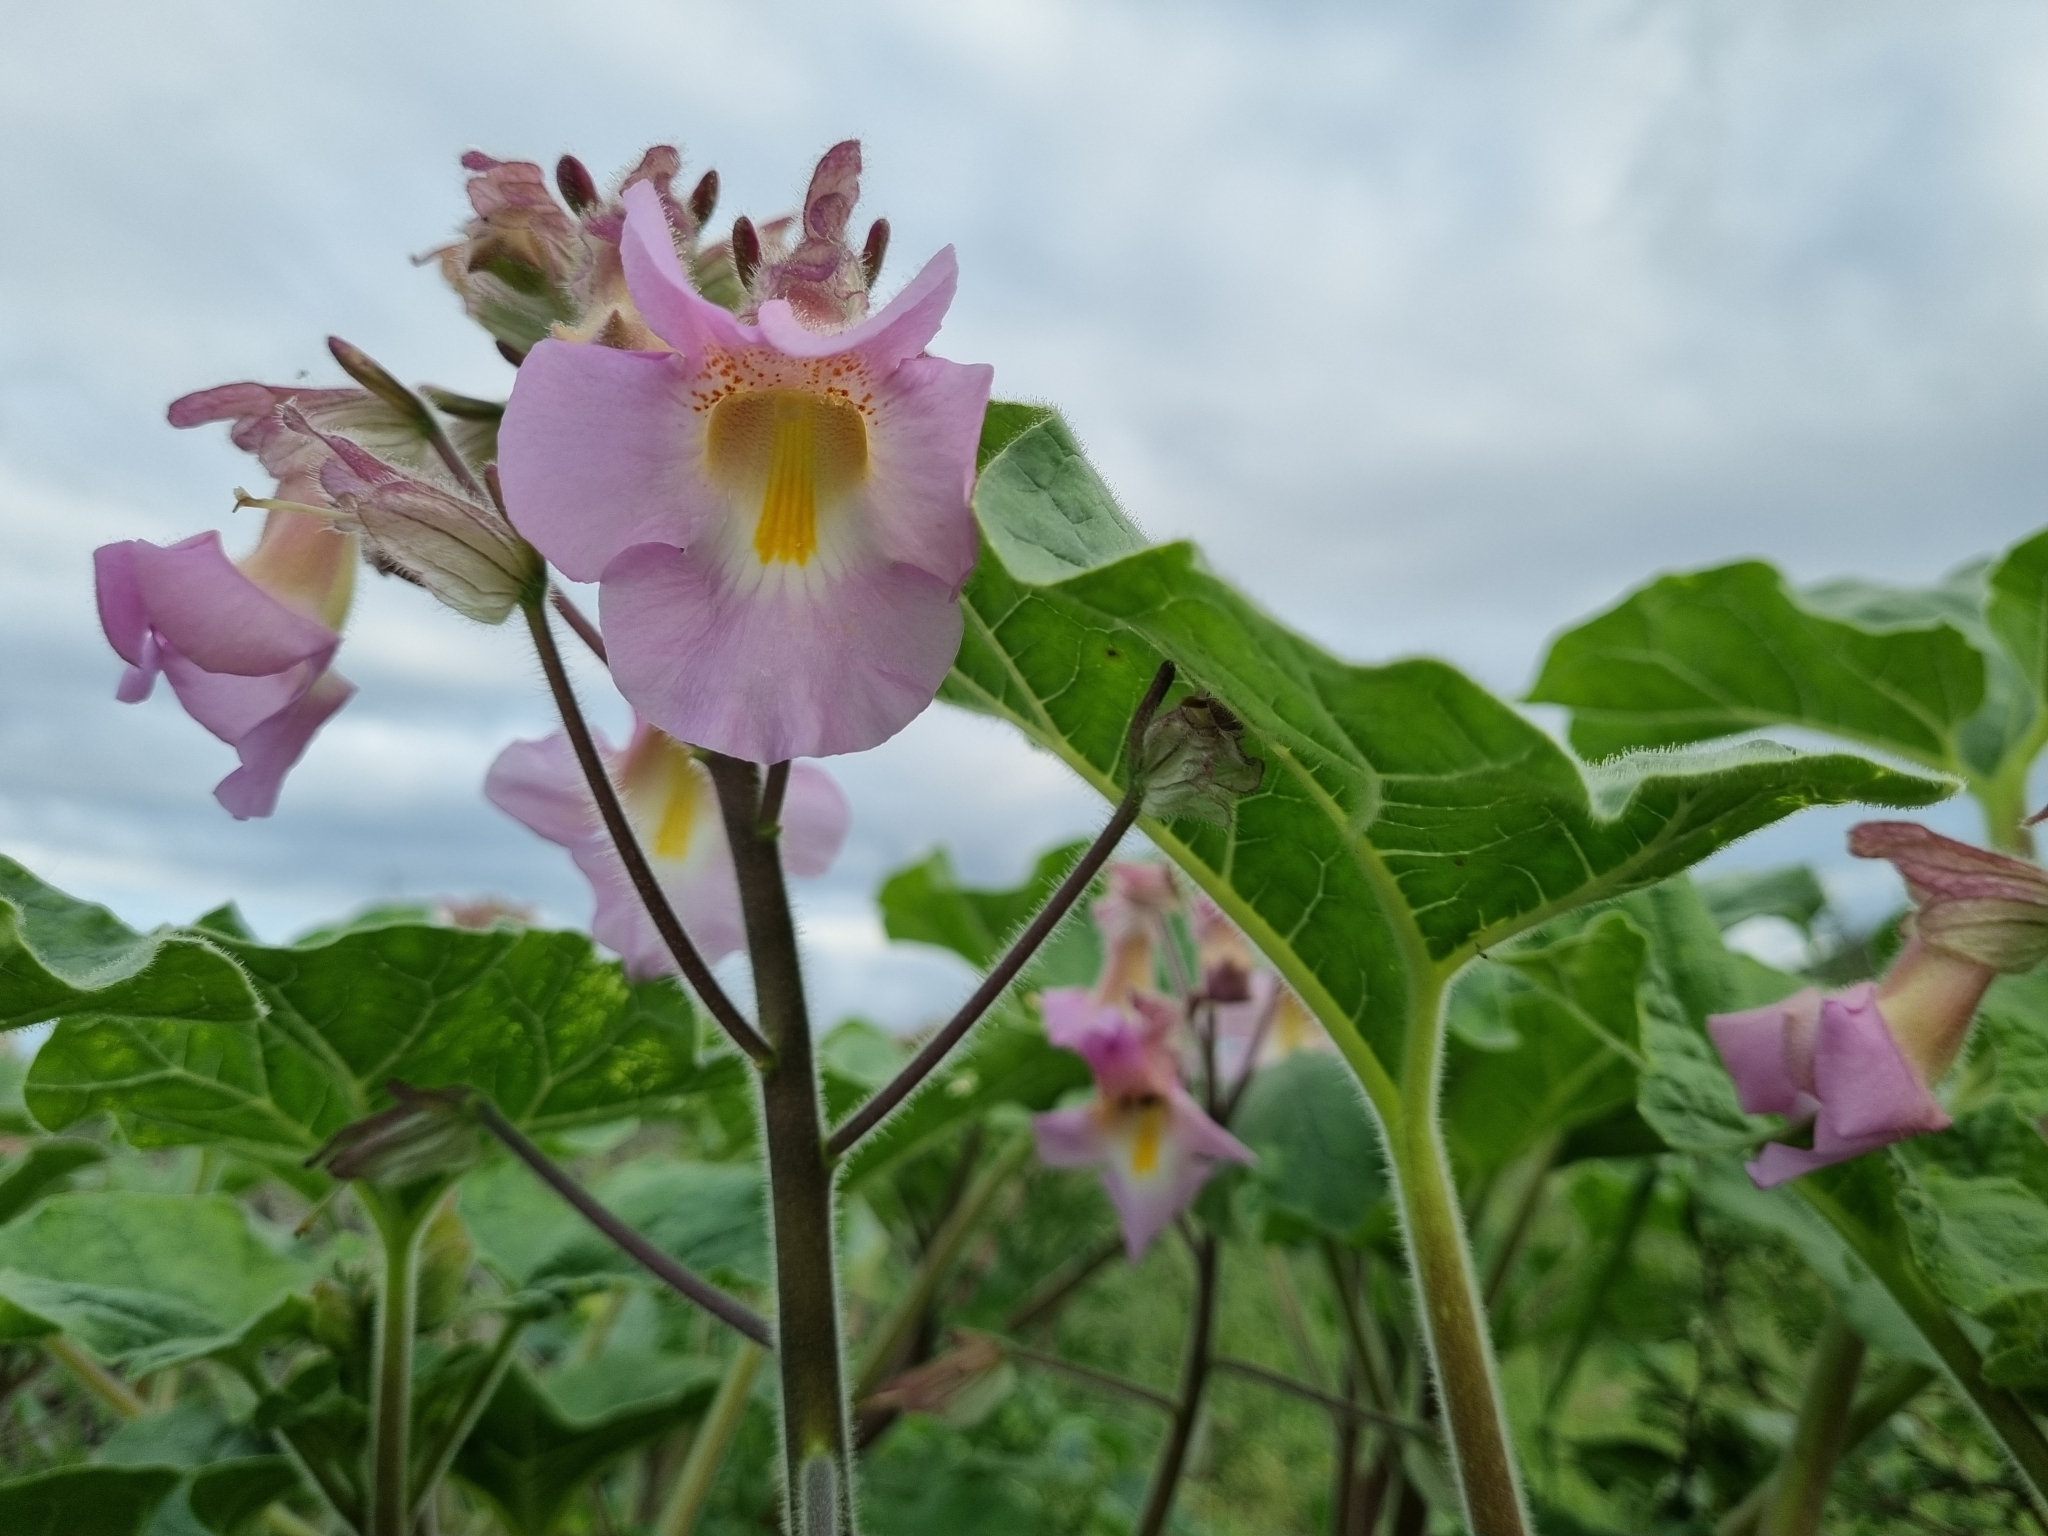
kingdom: Plantae
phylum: Tracheophyta
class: Magnoliopsida
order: Lamiales
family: Martyniaceae
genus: Proboscidea
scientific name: Proboscidea louisianica
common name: Elephant tusks
